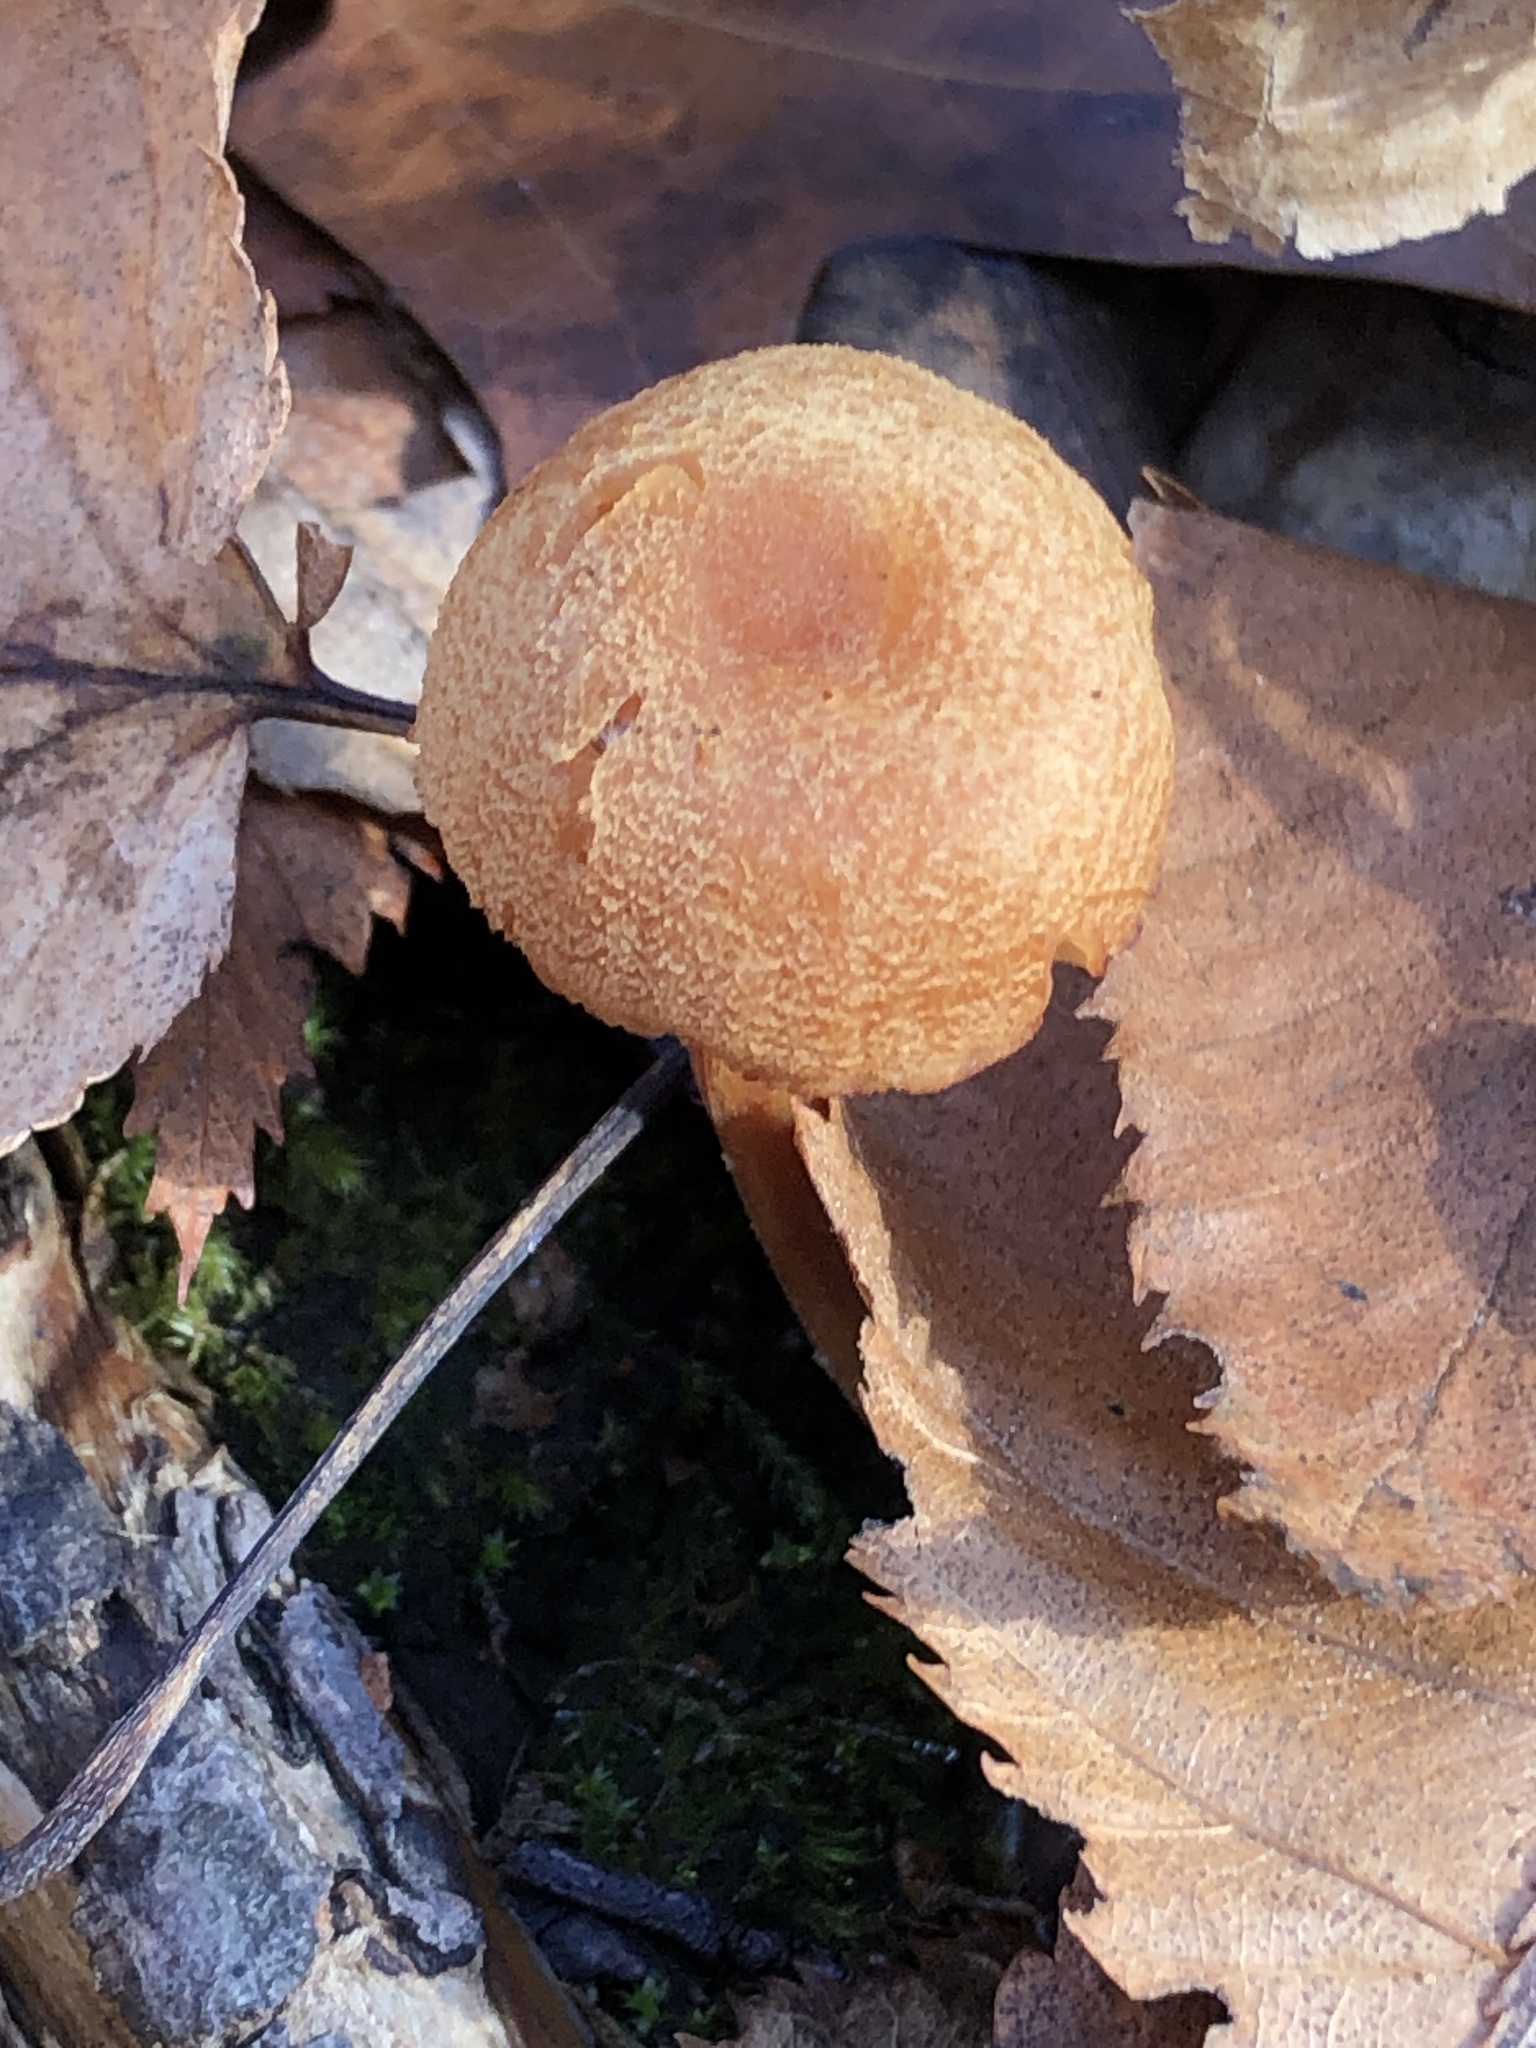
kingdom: Fungi
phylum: Basidiomycota
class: Agaricomycetes
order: Agaricales
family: Hydnangiaceae
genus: Laccaria
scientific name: Laccaria laccata
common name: Deceiver
